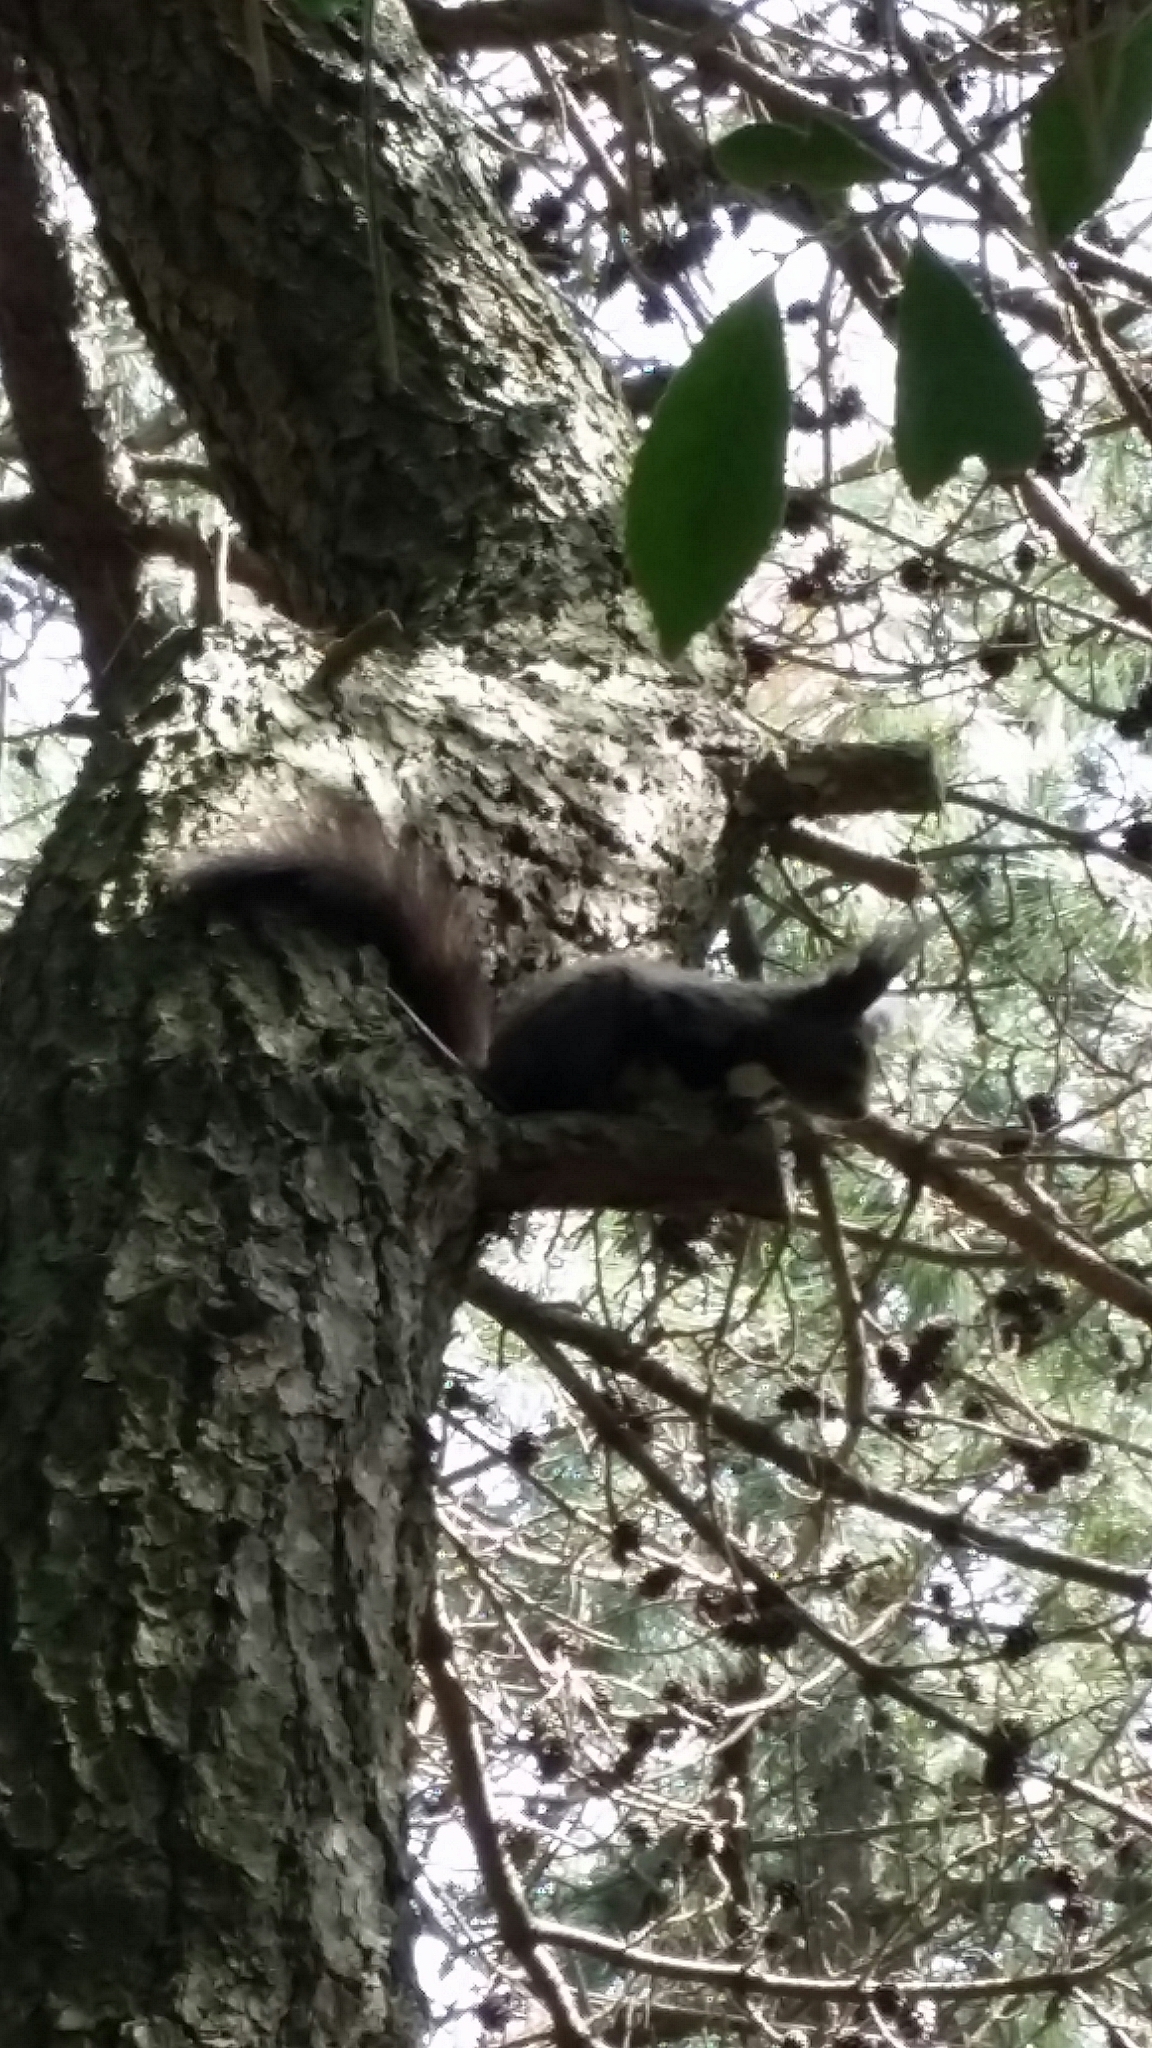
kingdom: Animalia
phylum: Chordata
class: Mammalia
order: Rodentia
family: Sciuridae
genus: Sciurus
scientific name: Sciurus vulgaris
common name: Eurasian red squirrel
